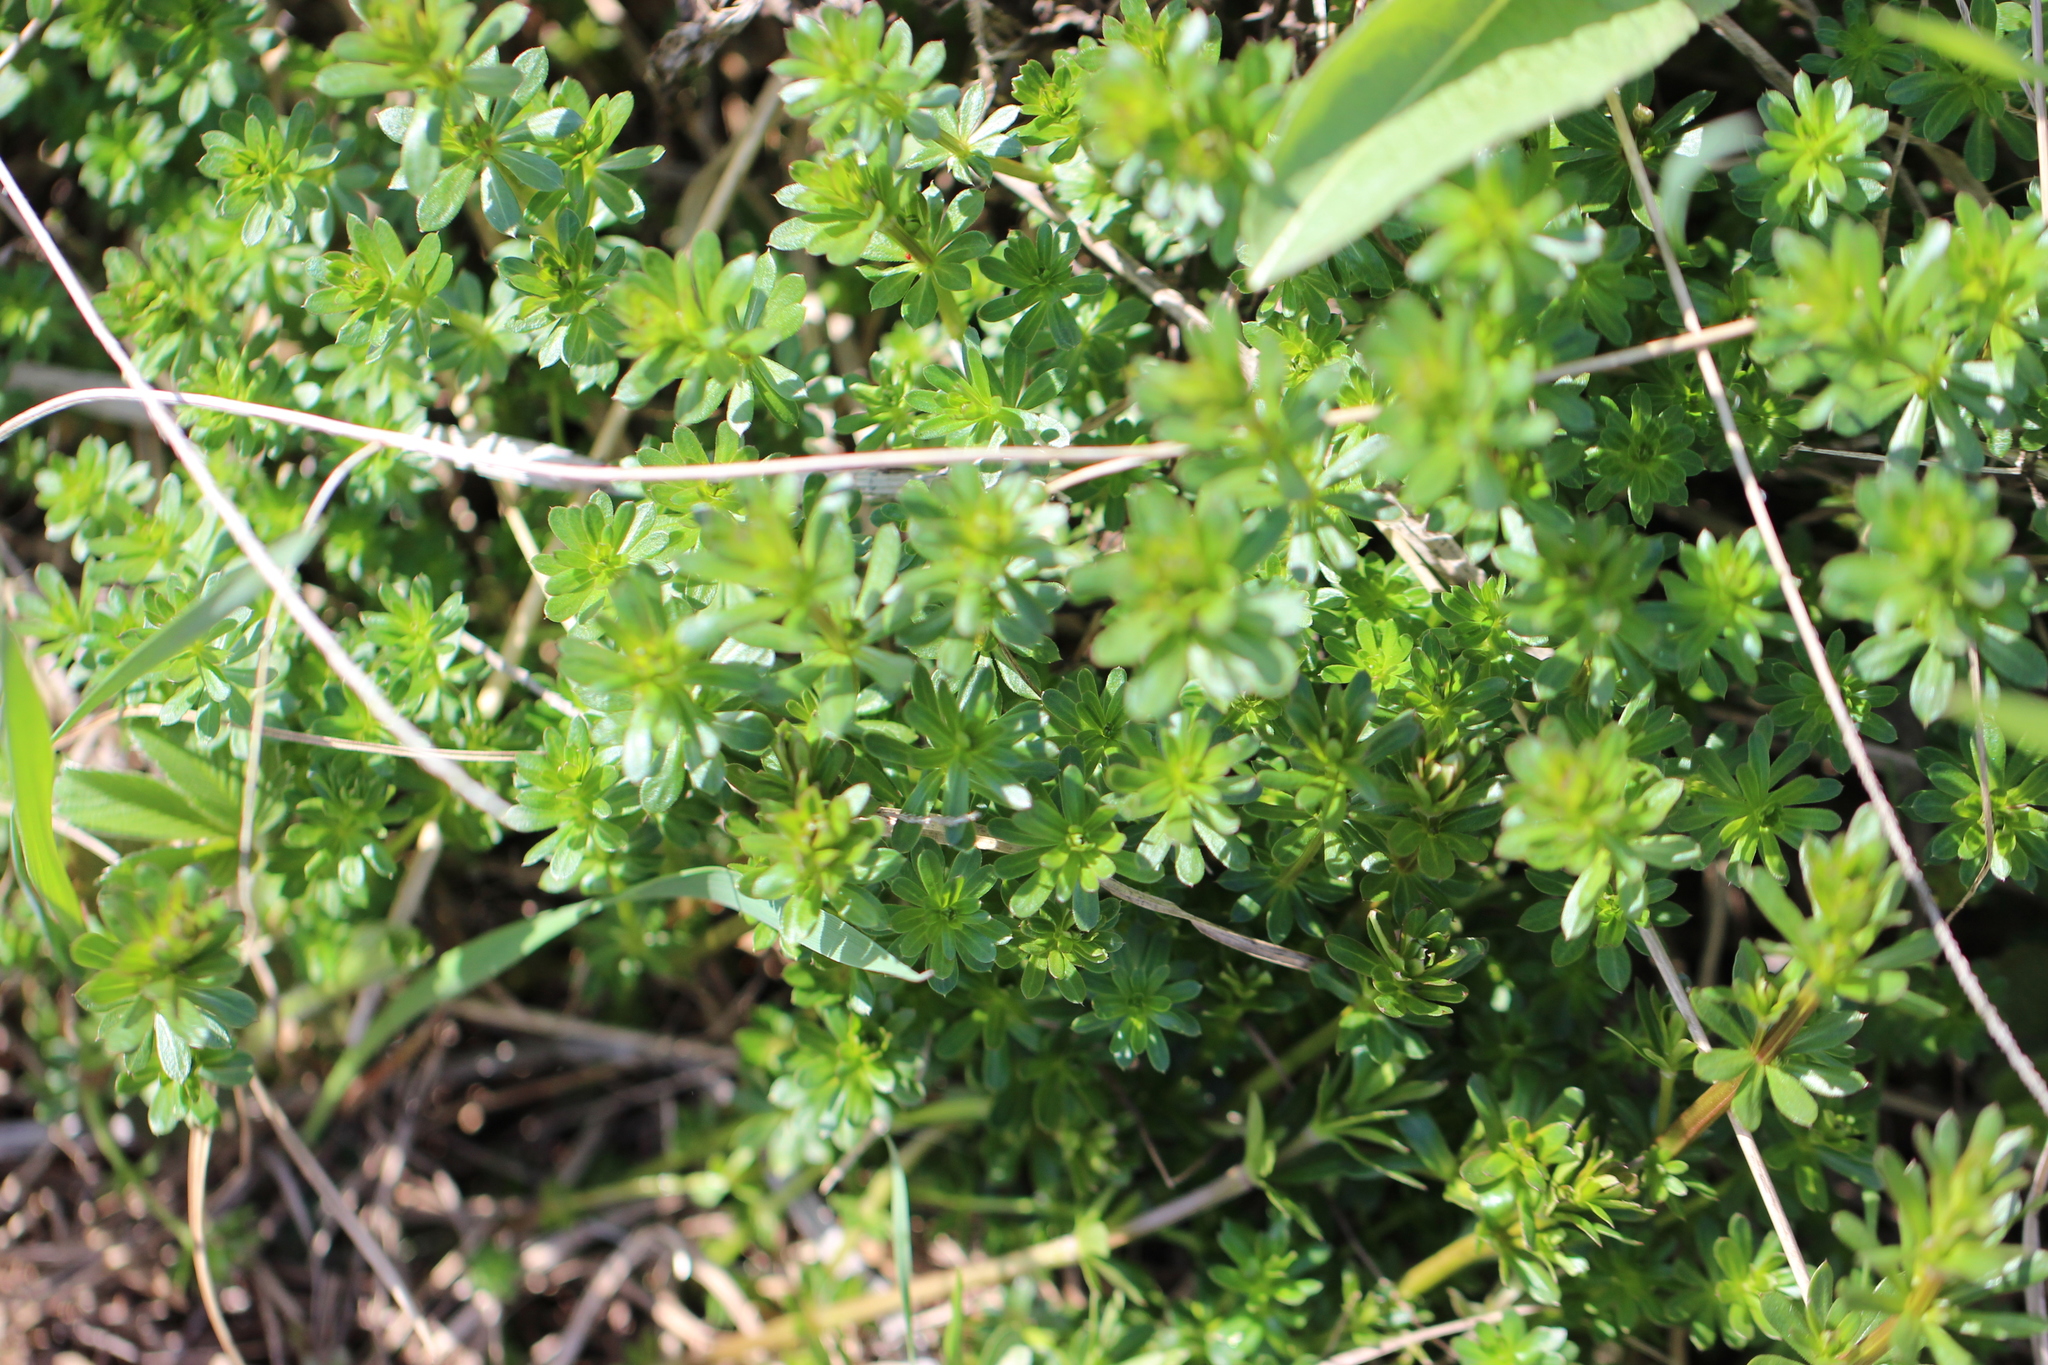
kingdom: Plantae
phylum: Tracheophyta
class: Magnoliopsida
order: Gentianales
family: Rubiaceae
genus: Galium
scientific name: Galium mollugo
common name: Hedge bedstraw
